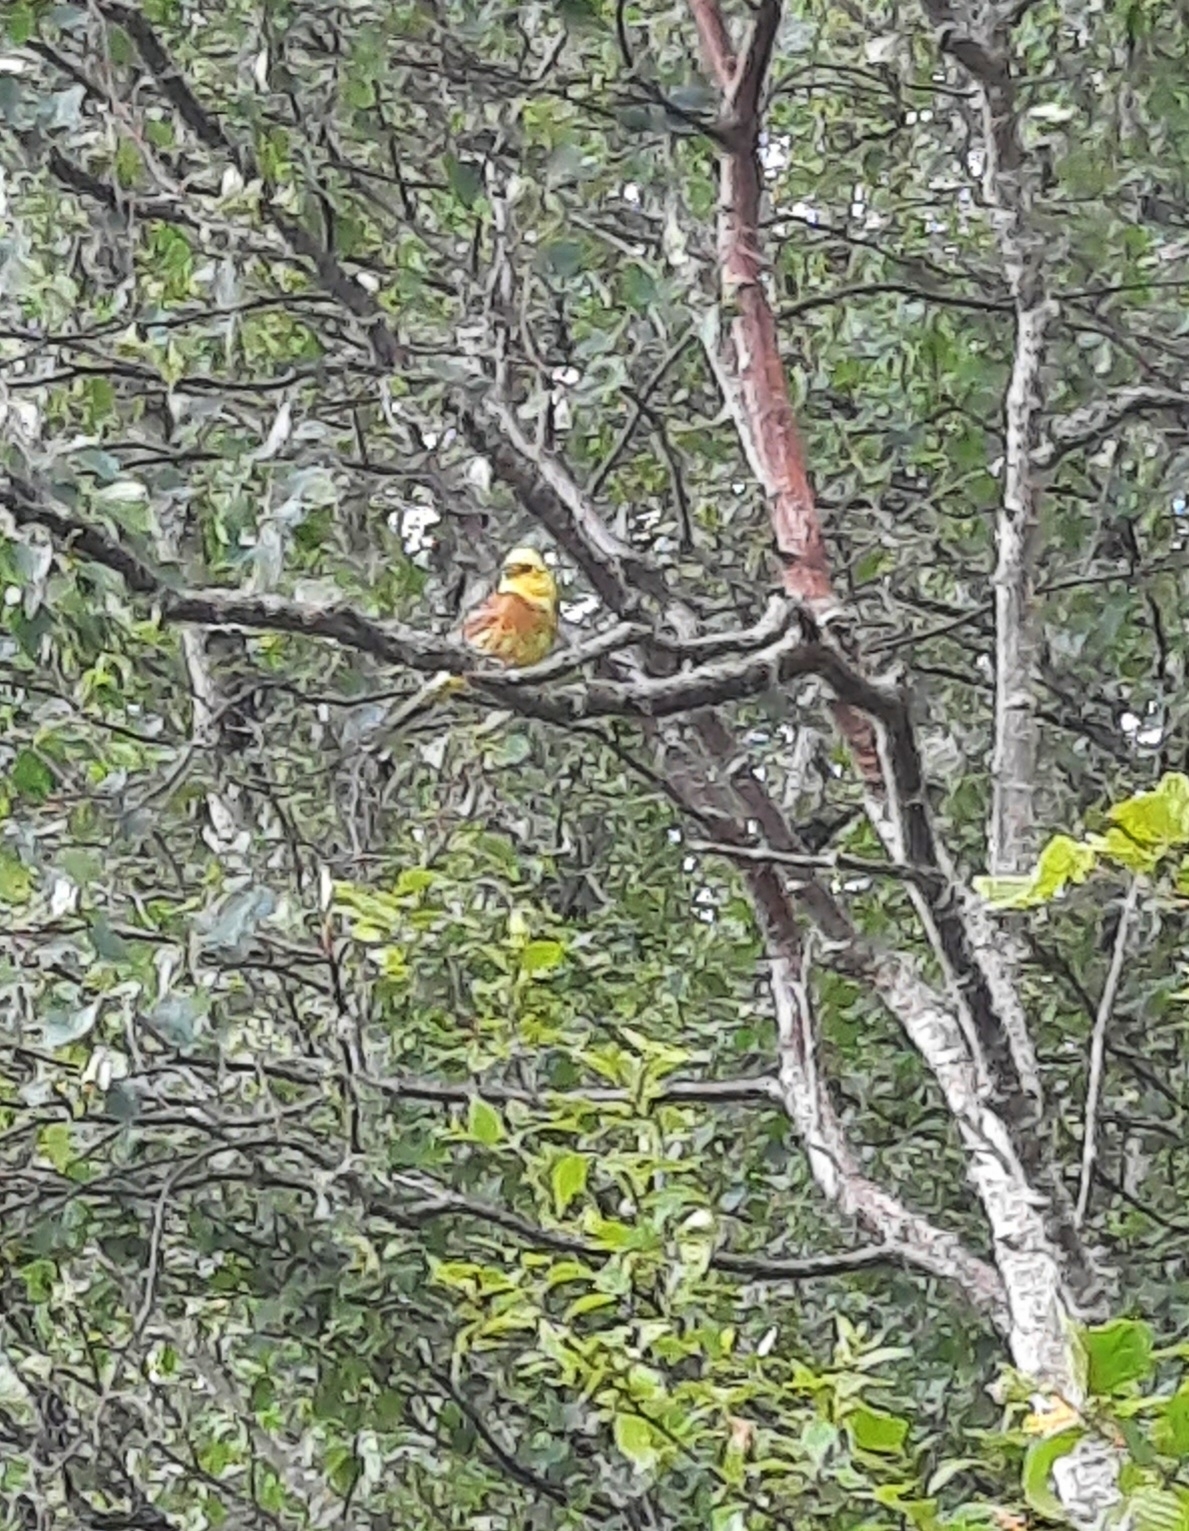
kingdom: Animalia
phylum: Chordata
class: Aves
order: Passeriformes
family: Emberizidae
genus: Emberiza
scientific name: Emberiza citrinella
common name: Yellowhammer
